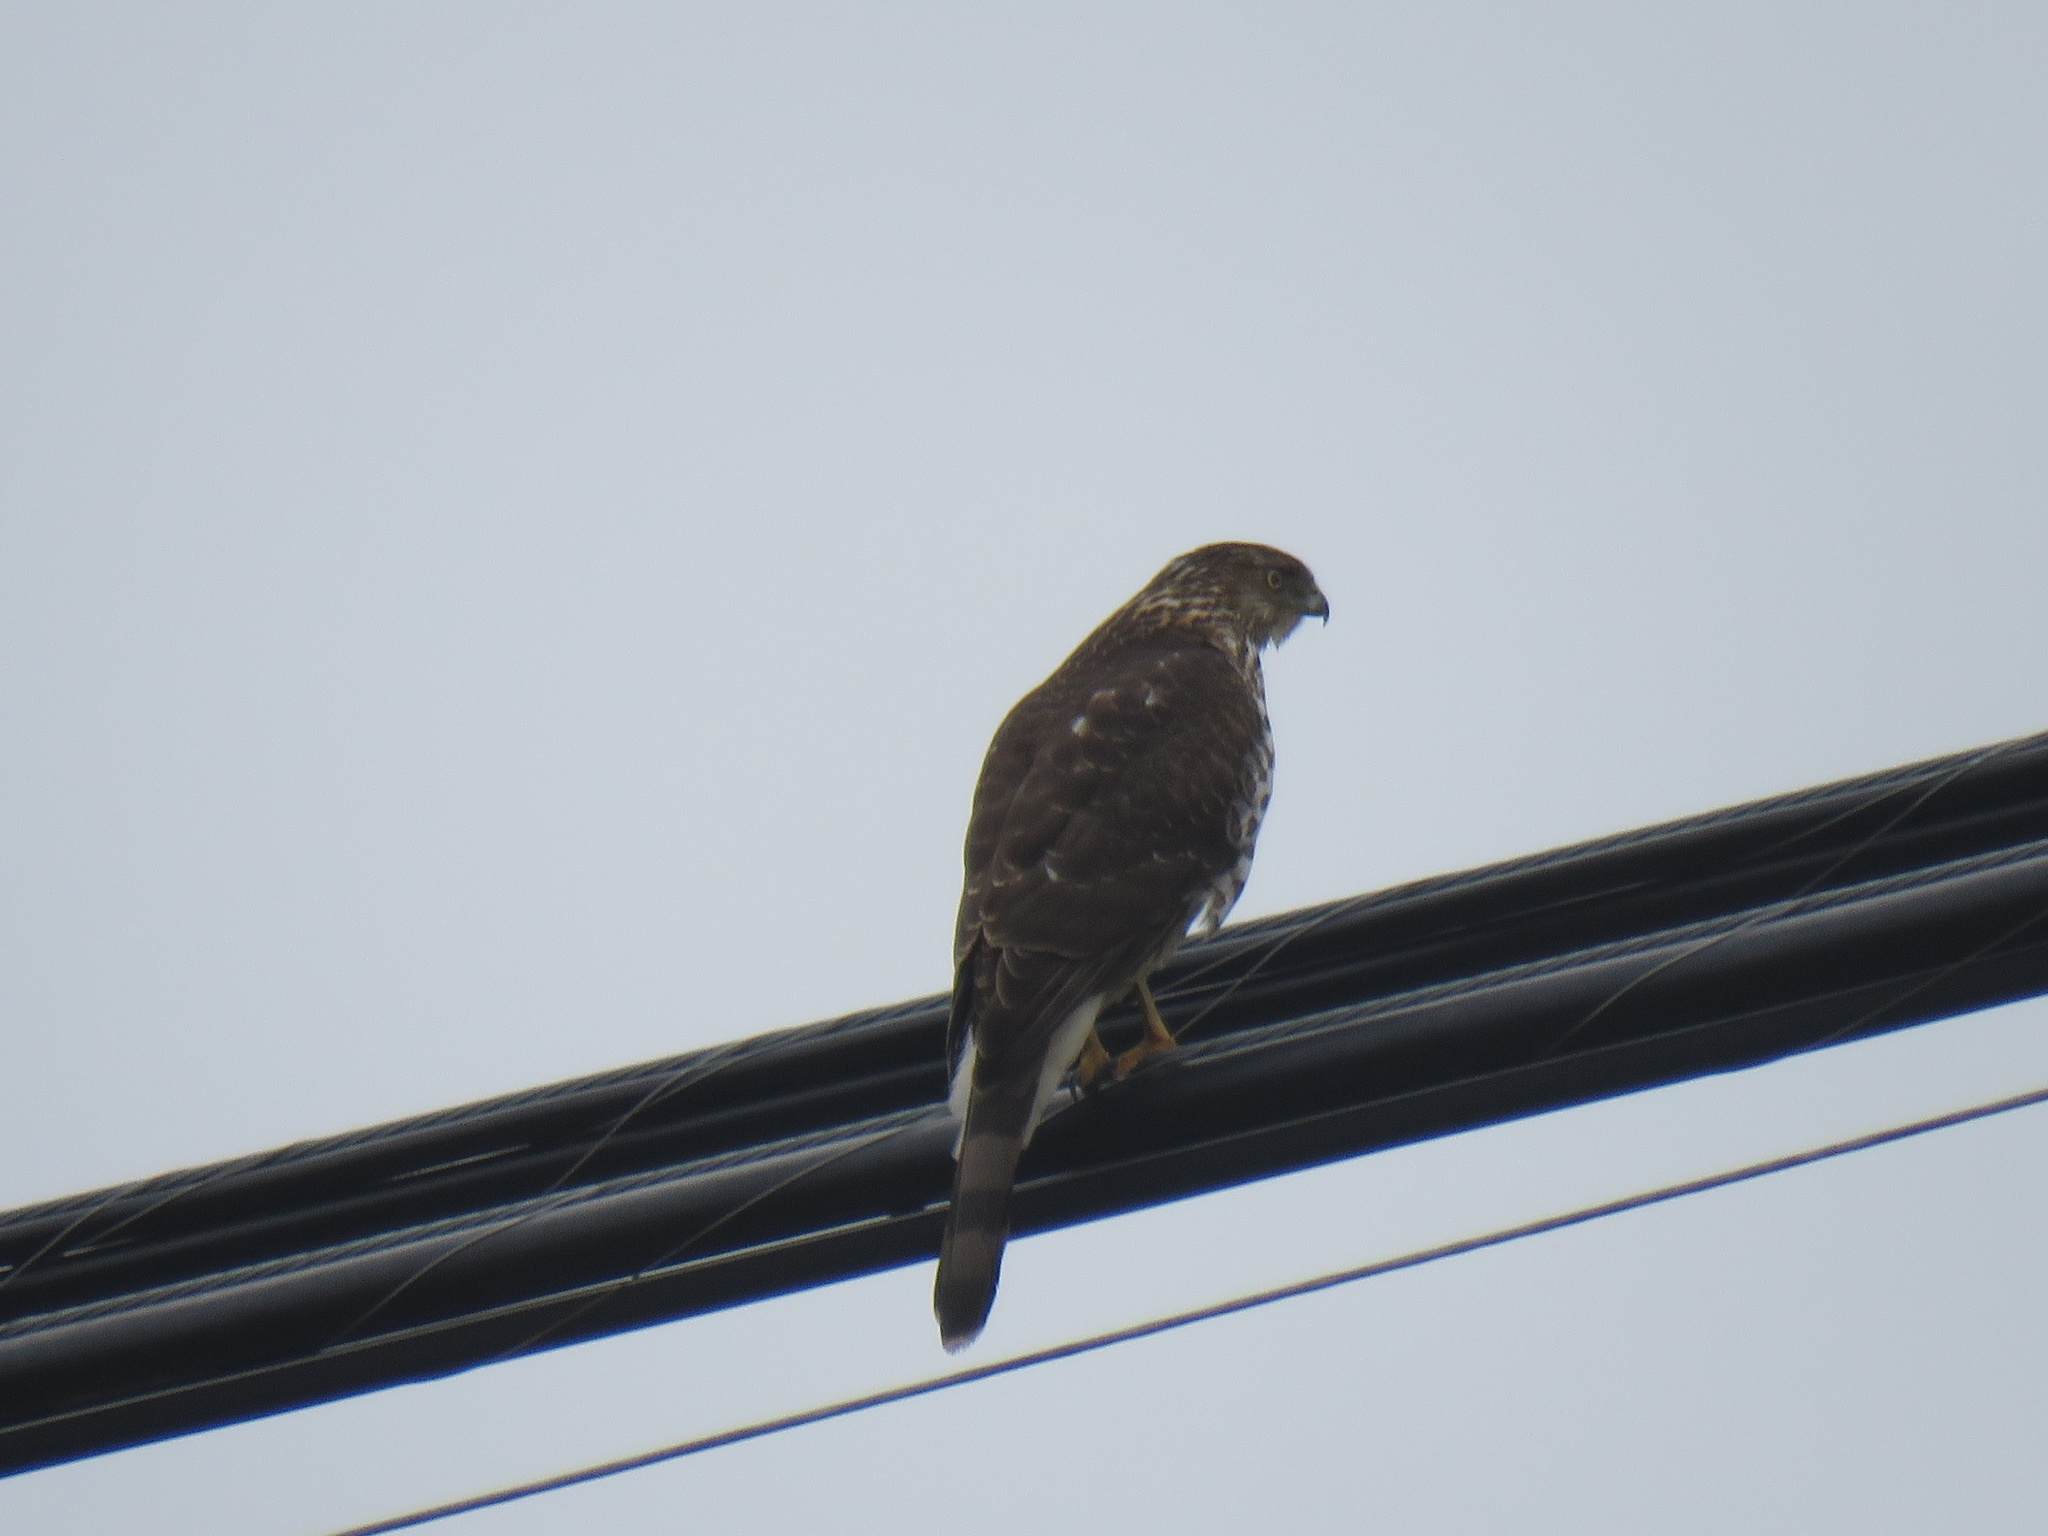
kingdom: Animalia
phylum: Chordata
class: Aves
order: Accipitriformes
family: Accipitridae
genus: Accipiter
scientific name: Accipiter cooperii
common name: Cooper's hawk
